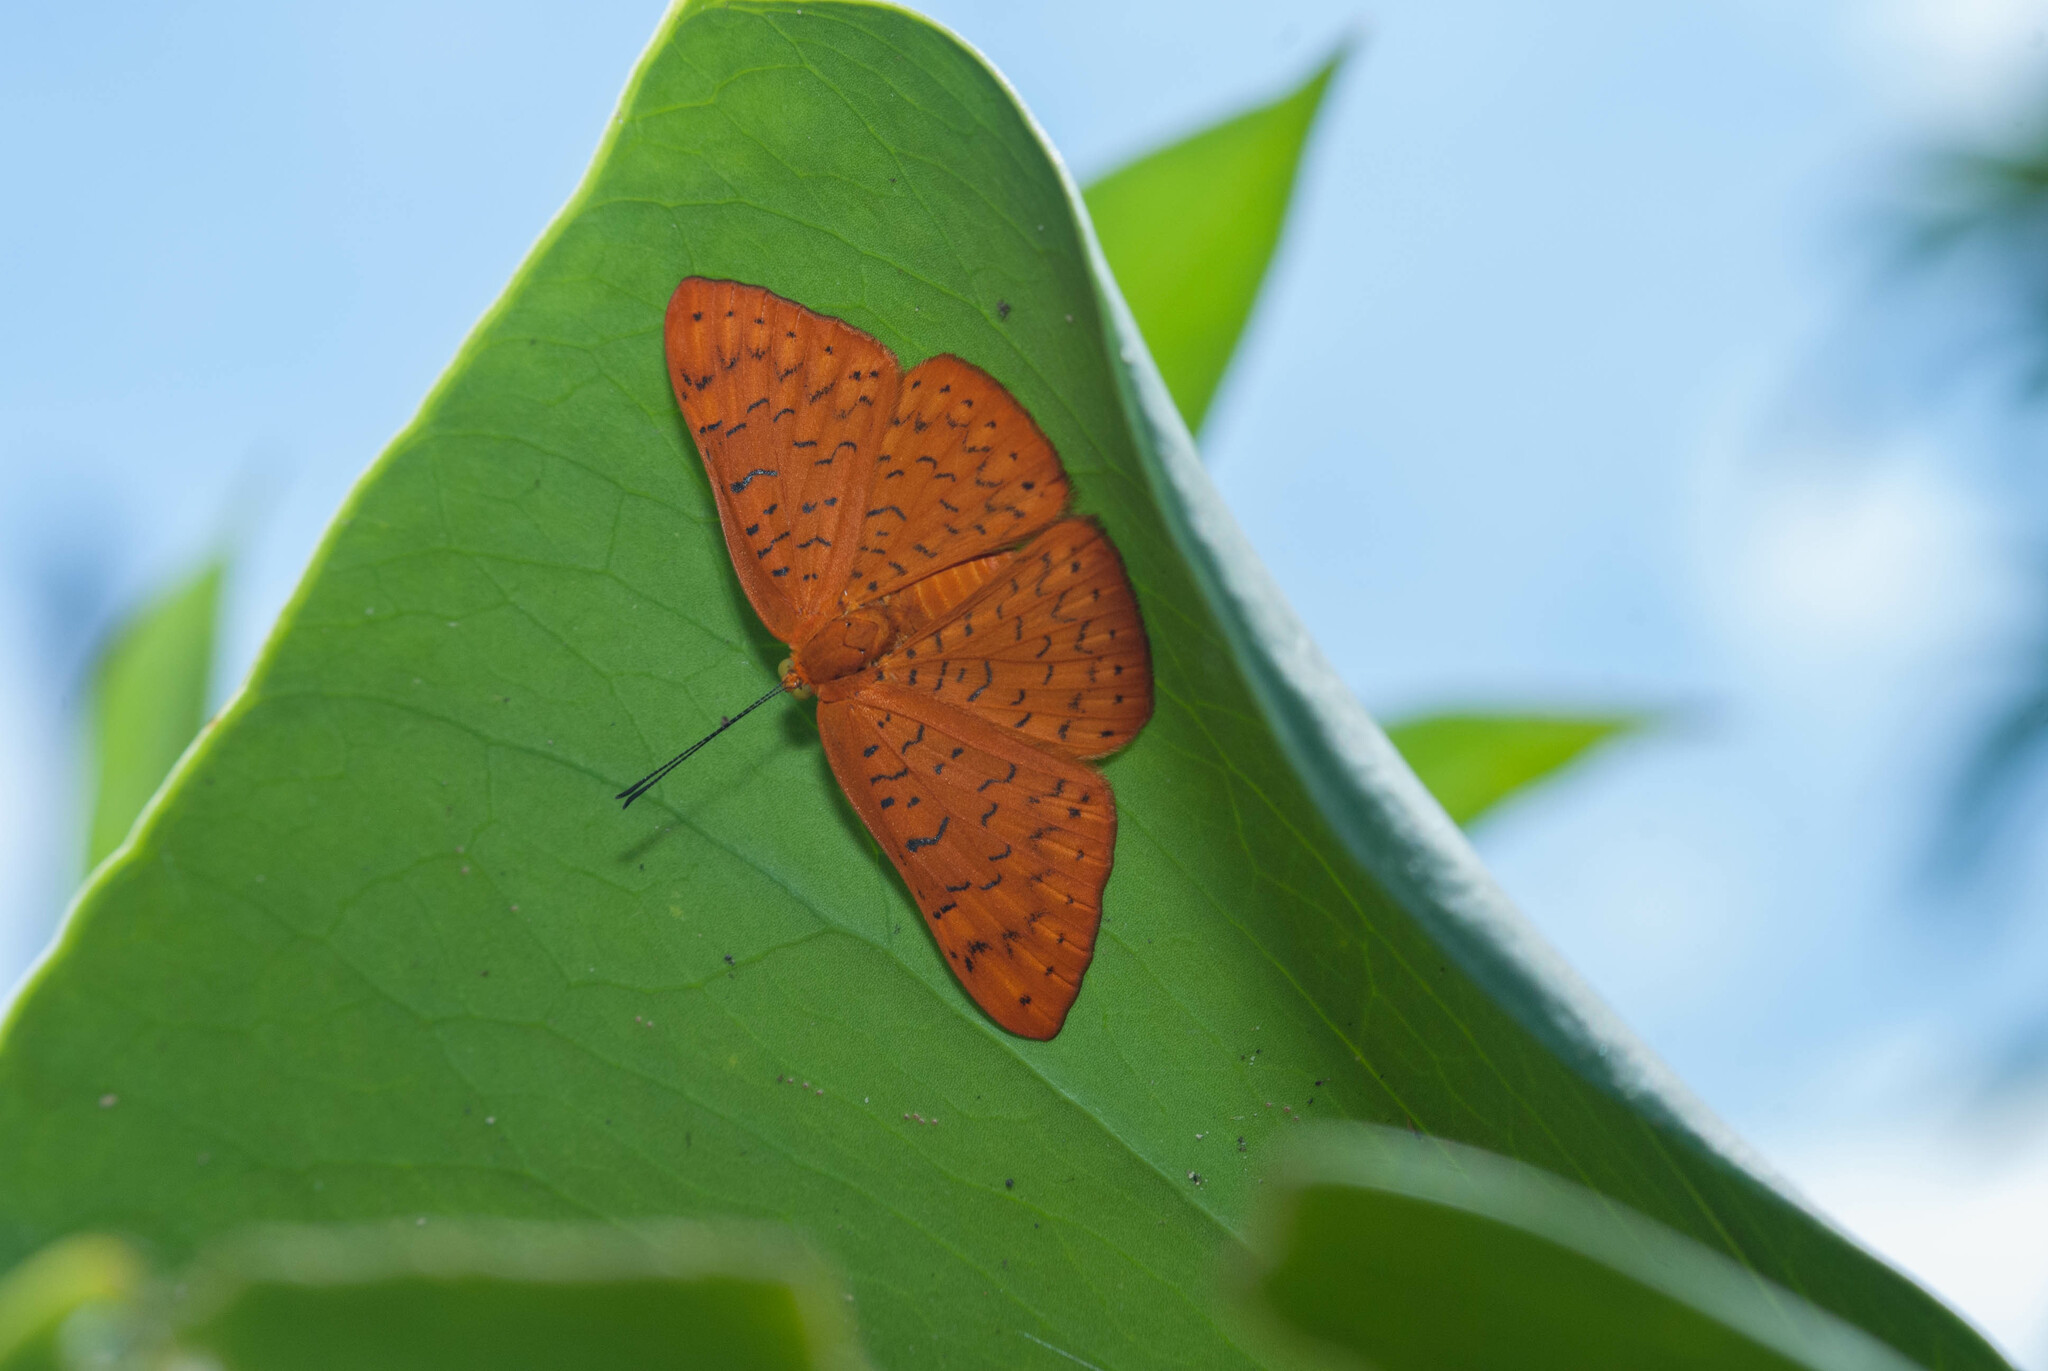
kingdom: Animalia
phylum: Arthropoda
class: Insecta
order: Lepidoptera
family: Lycaenidae
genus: Emesis
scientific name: Emesis fatima
